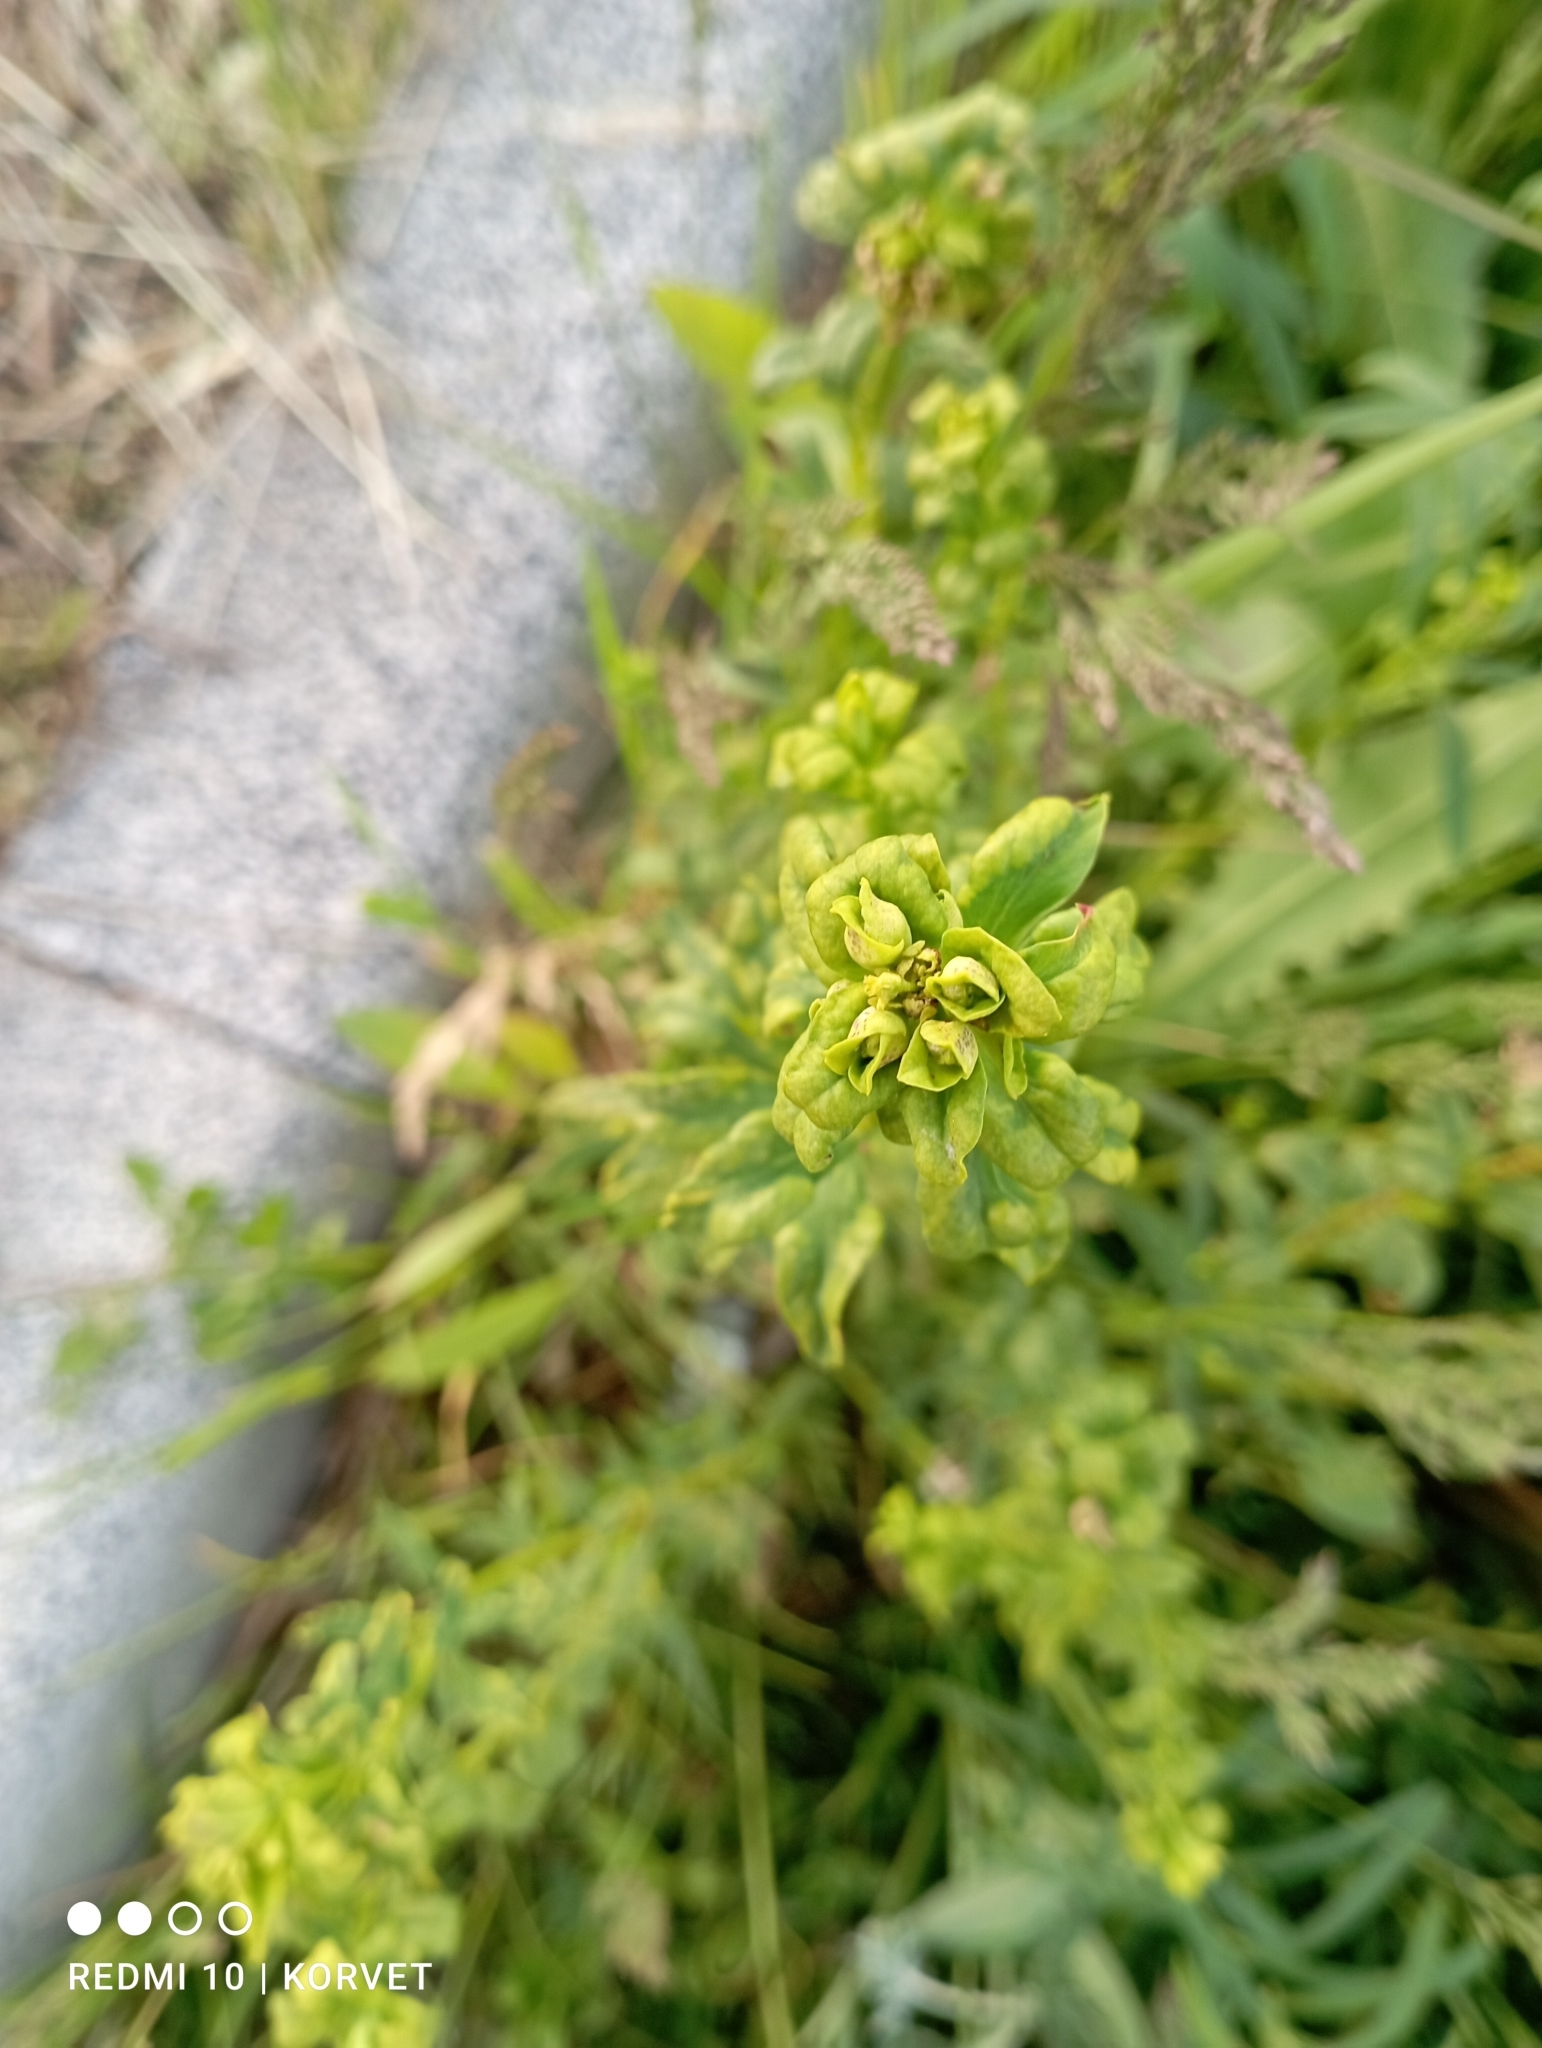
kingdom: Plantae
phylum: Tracheophyta
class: Magnoliopsida
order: Malpighiales
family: Euphorbiaceae
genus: Euphorbia
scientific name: Euphorbia virgata
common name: Leafy spurge
